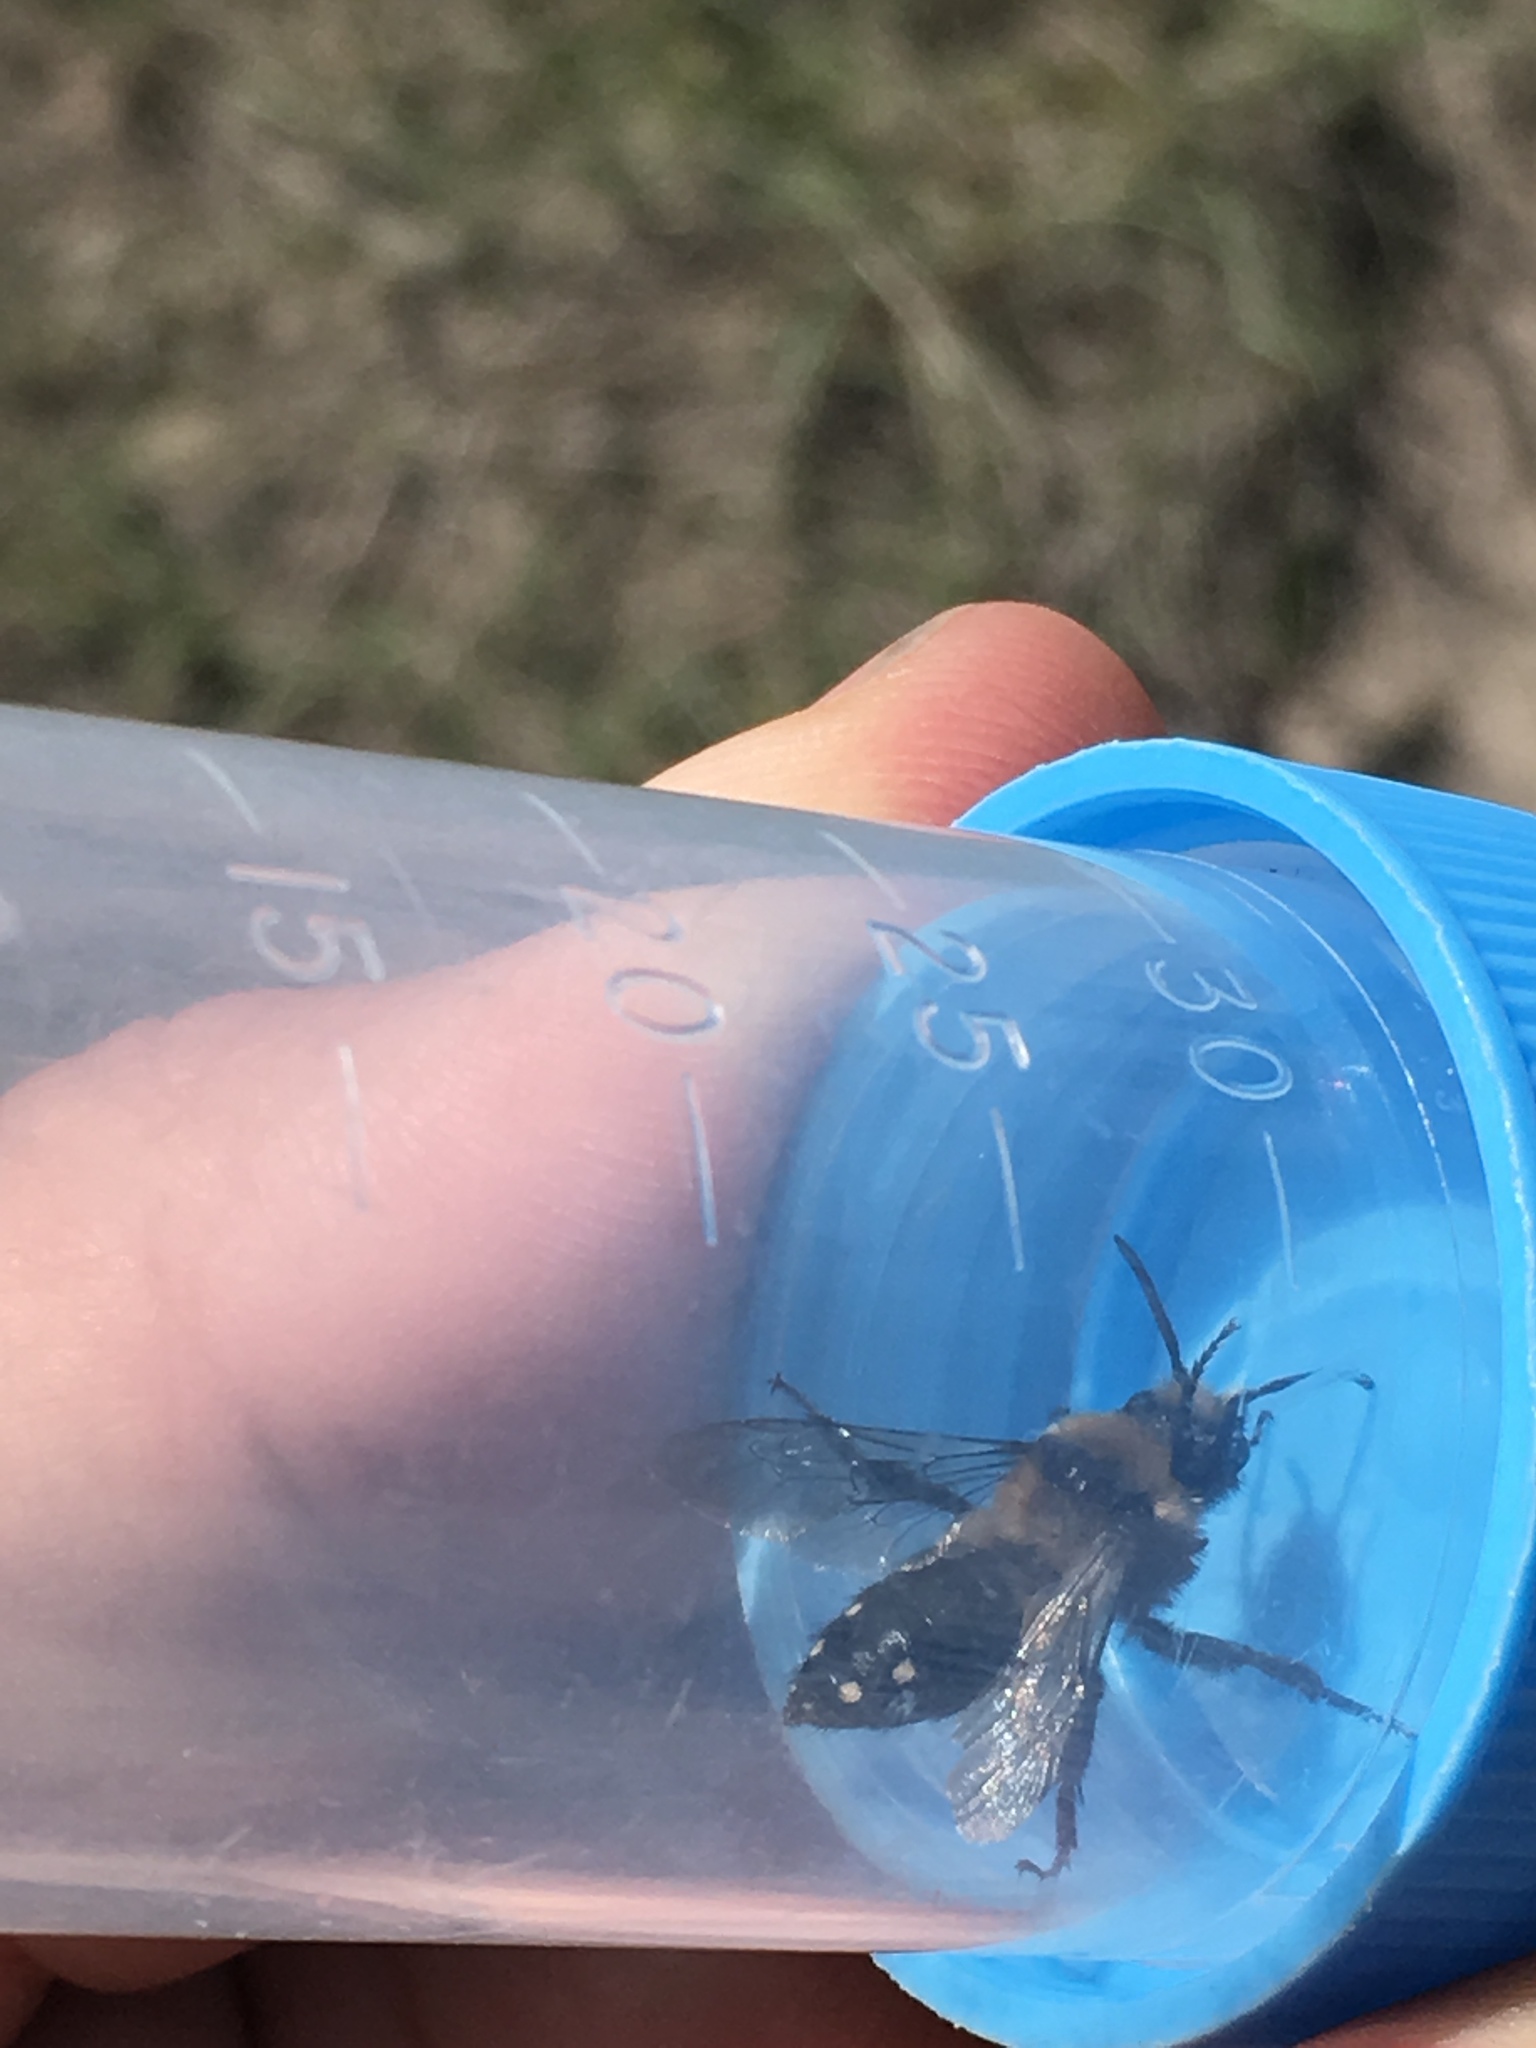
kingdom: Animalia
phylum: Arthropoda
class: Insecta
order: Hymenoptera
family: Apidae
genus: Melecta
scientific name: Melecta separata
